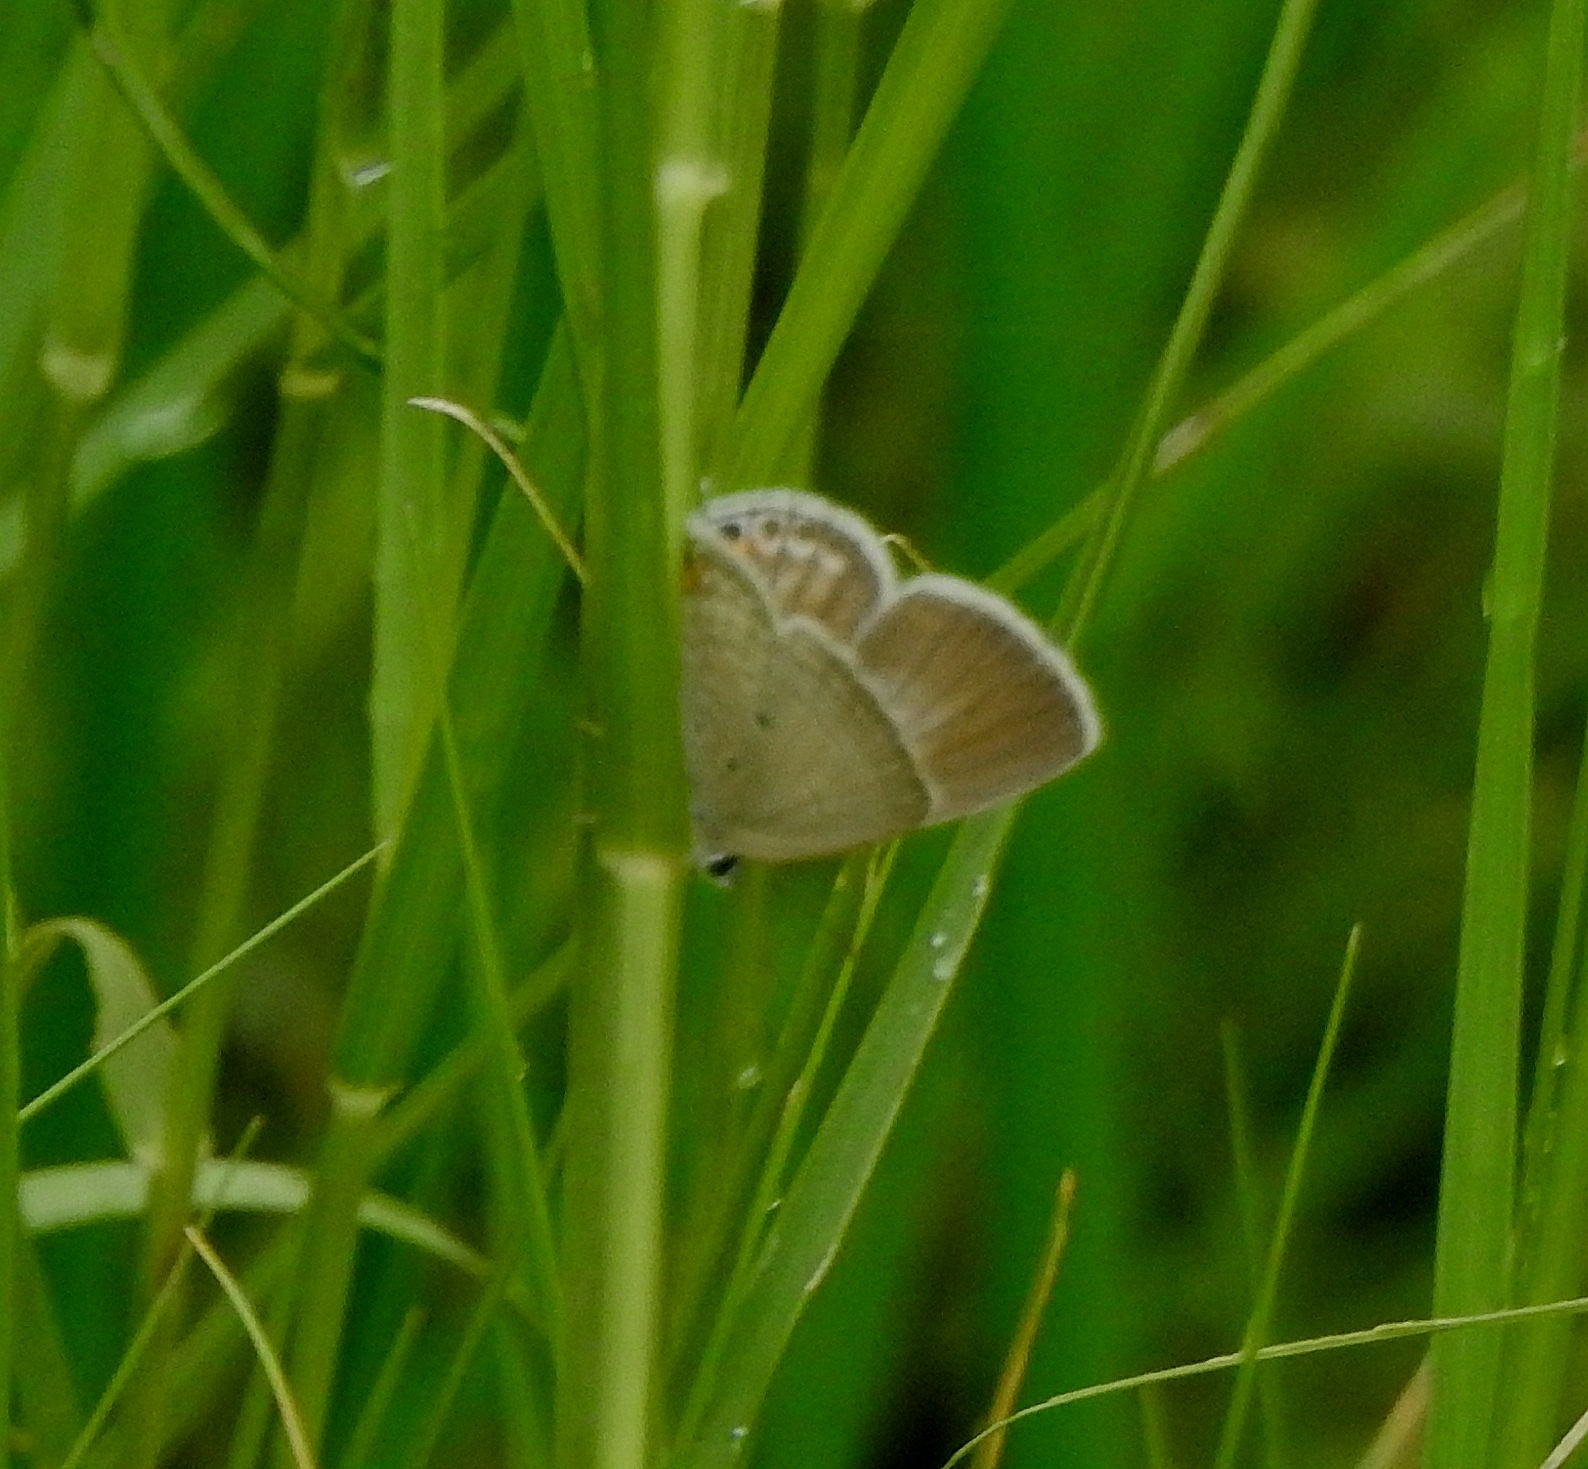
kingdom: Animalia
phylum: Arthropoda
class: Insecta
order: Lepidoptera
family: Lycaenidae
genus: Euchrysops
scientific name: Euchrysops cnejus
